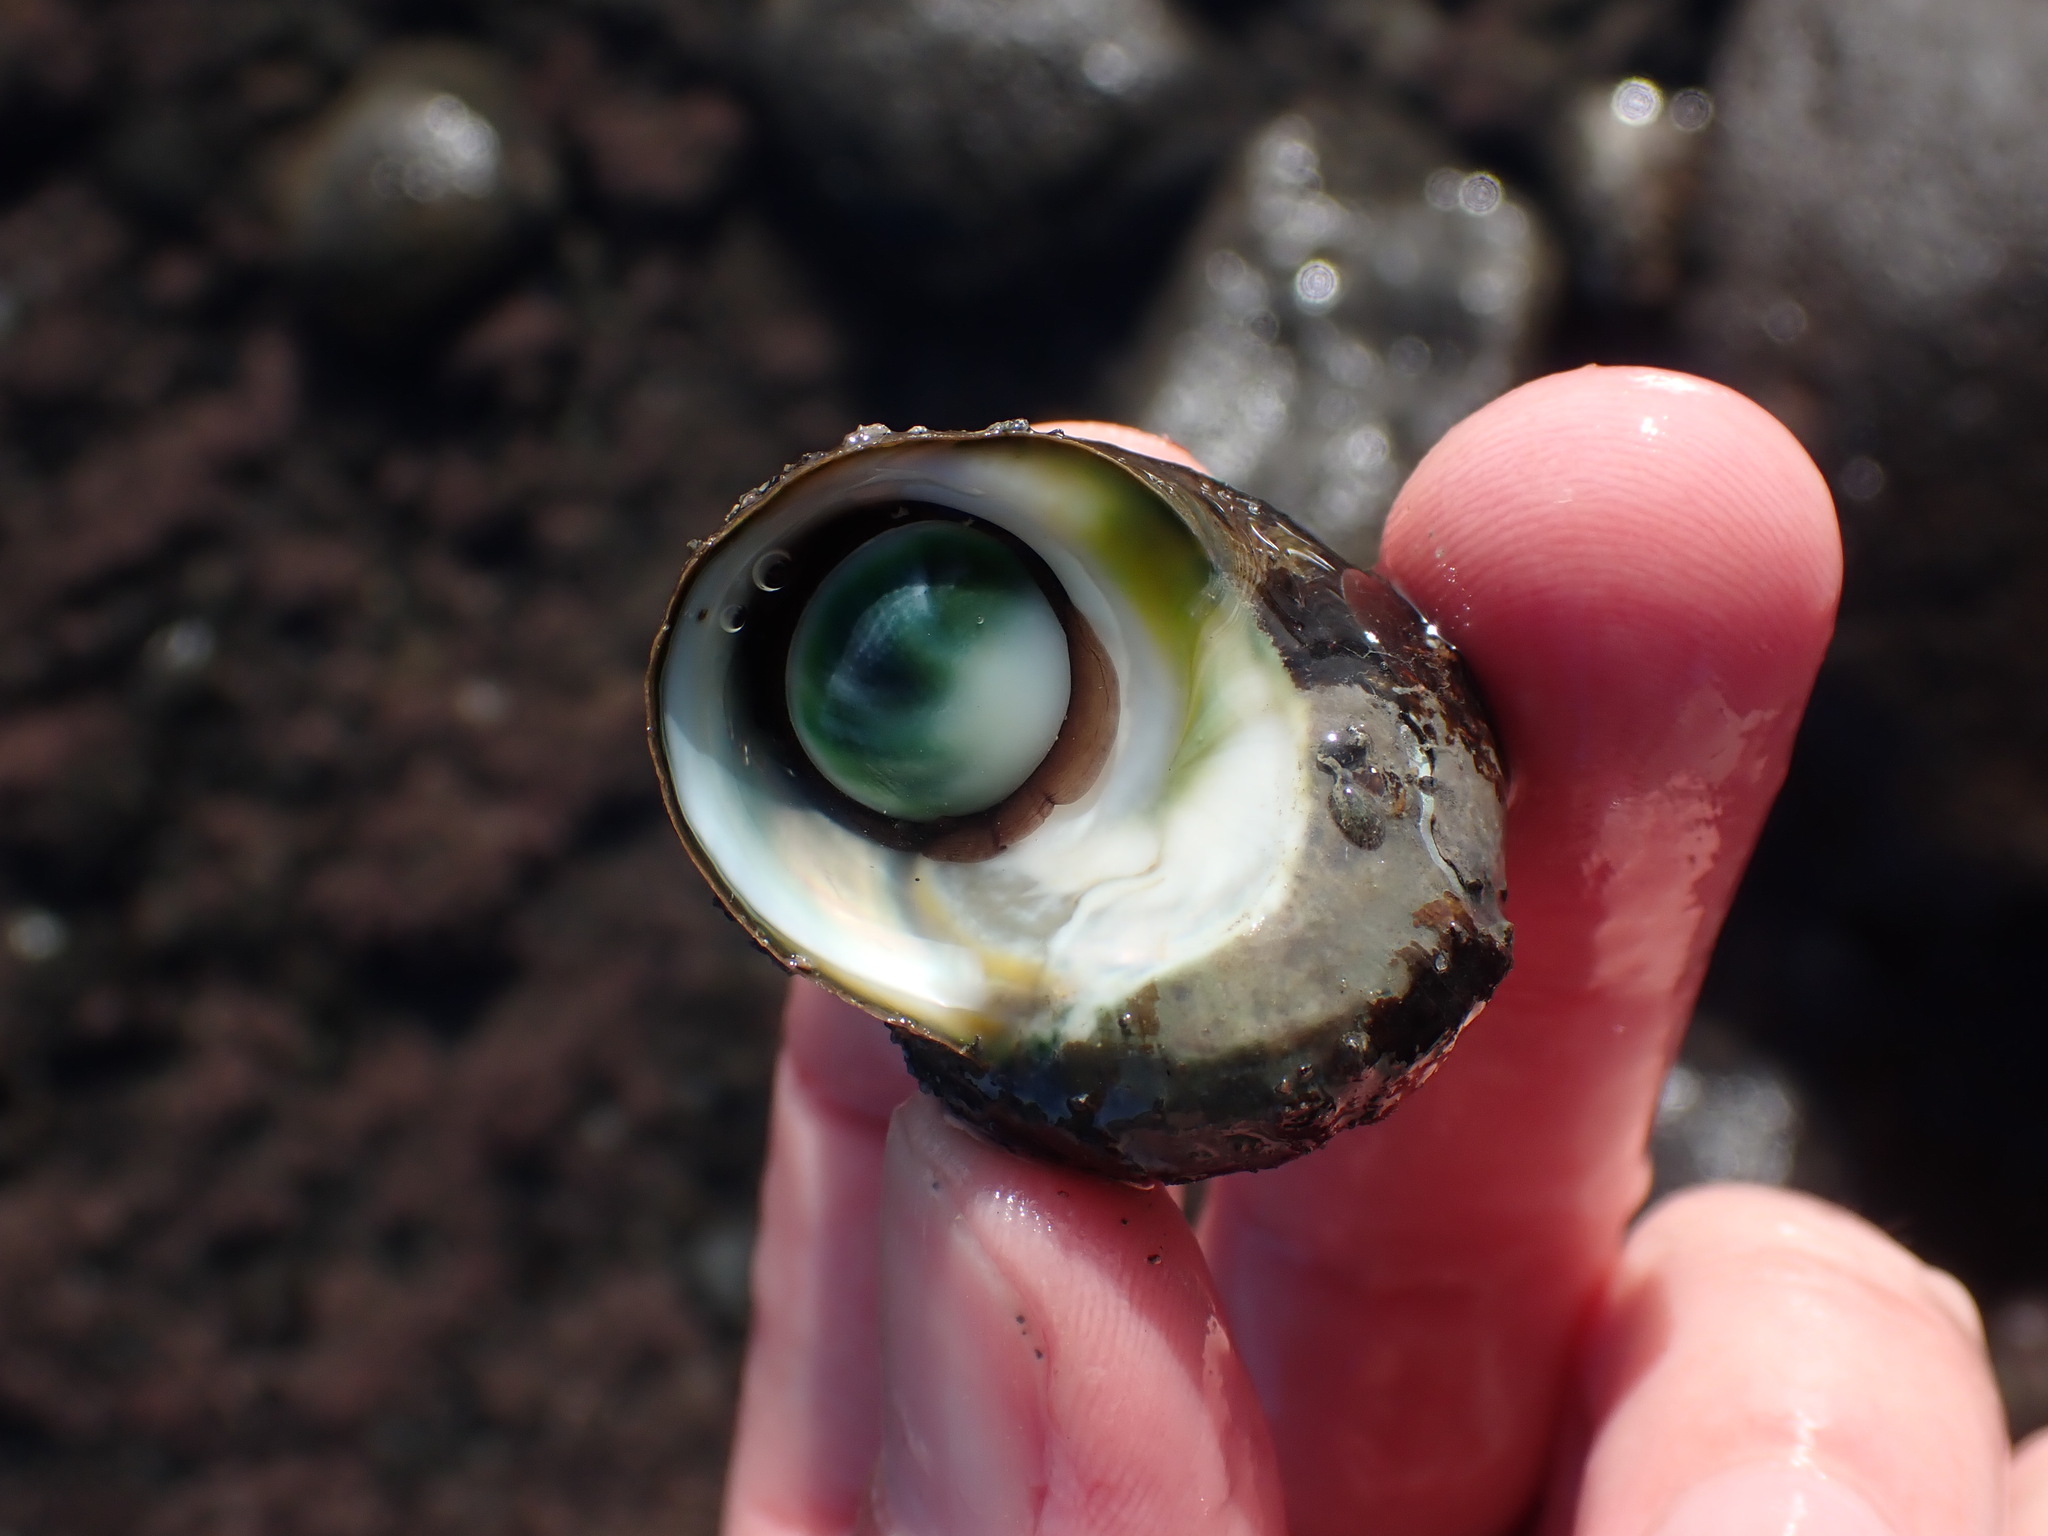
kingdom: Animalia
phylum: Mollusca
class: Gastropoda
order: Trochida
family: Turbinidae
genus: Lunella
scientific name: Lunella smaragda
